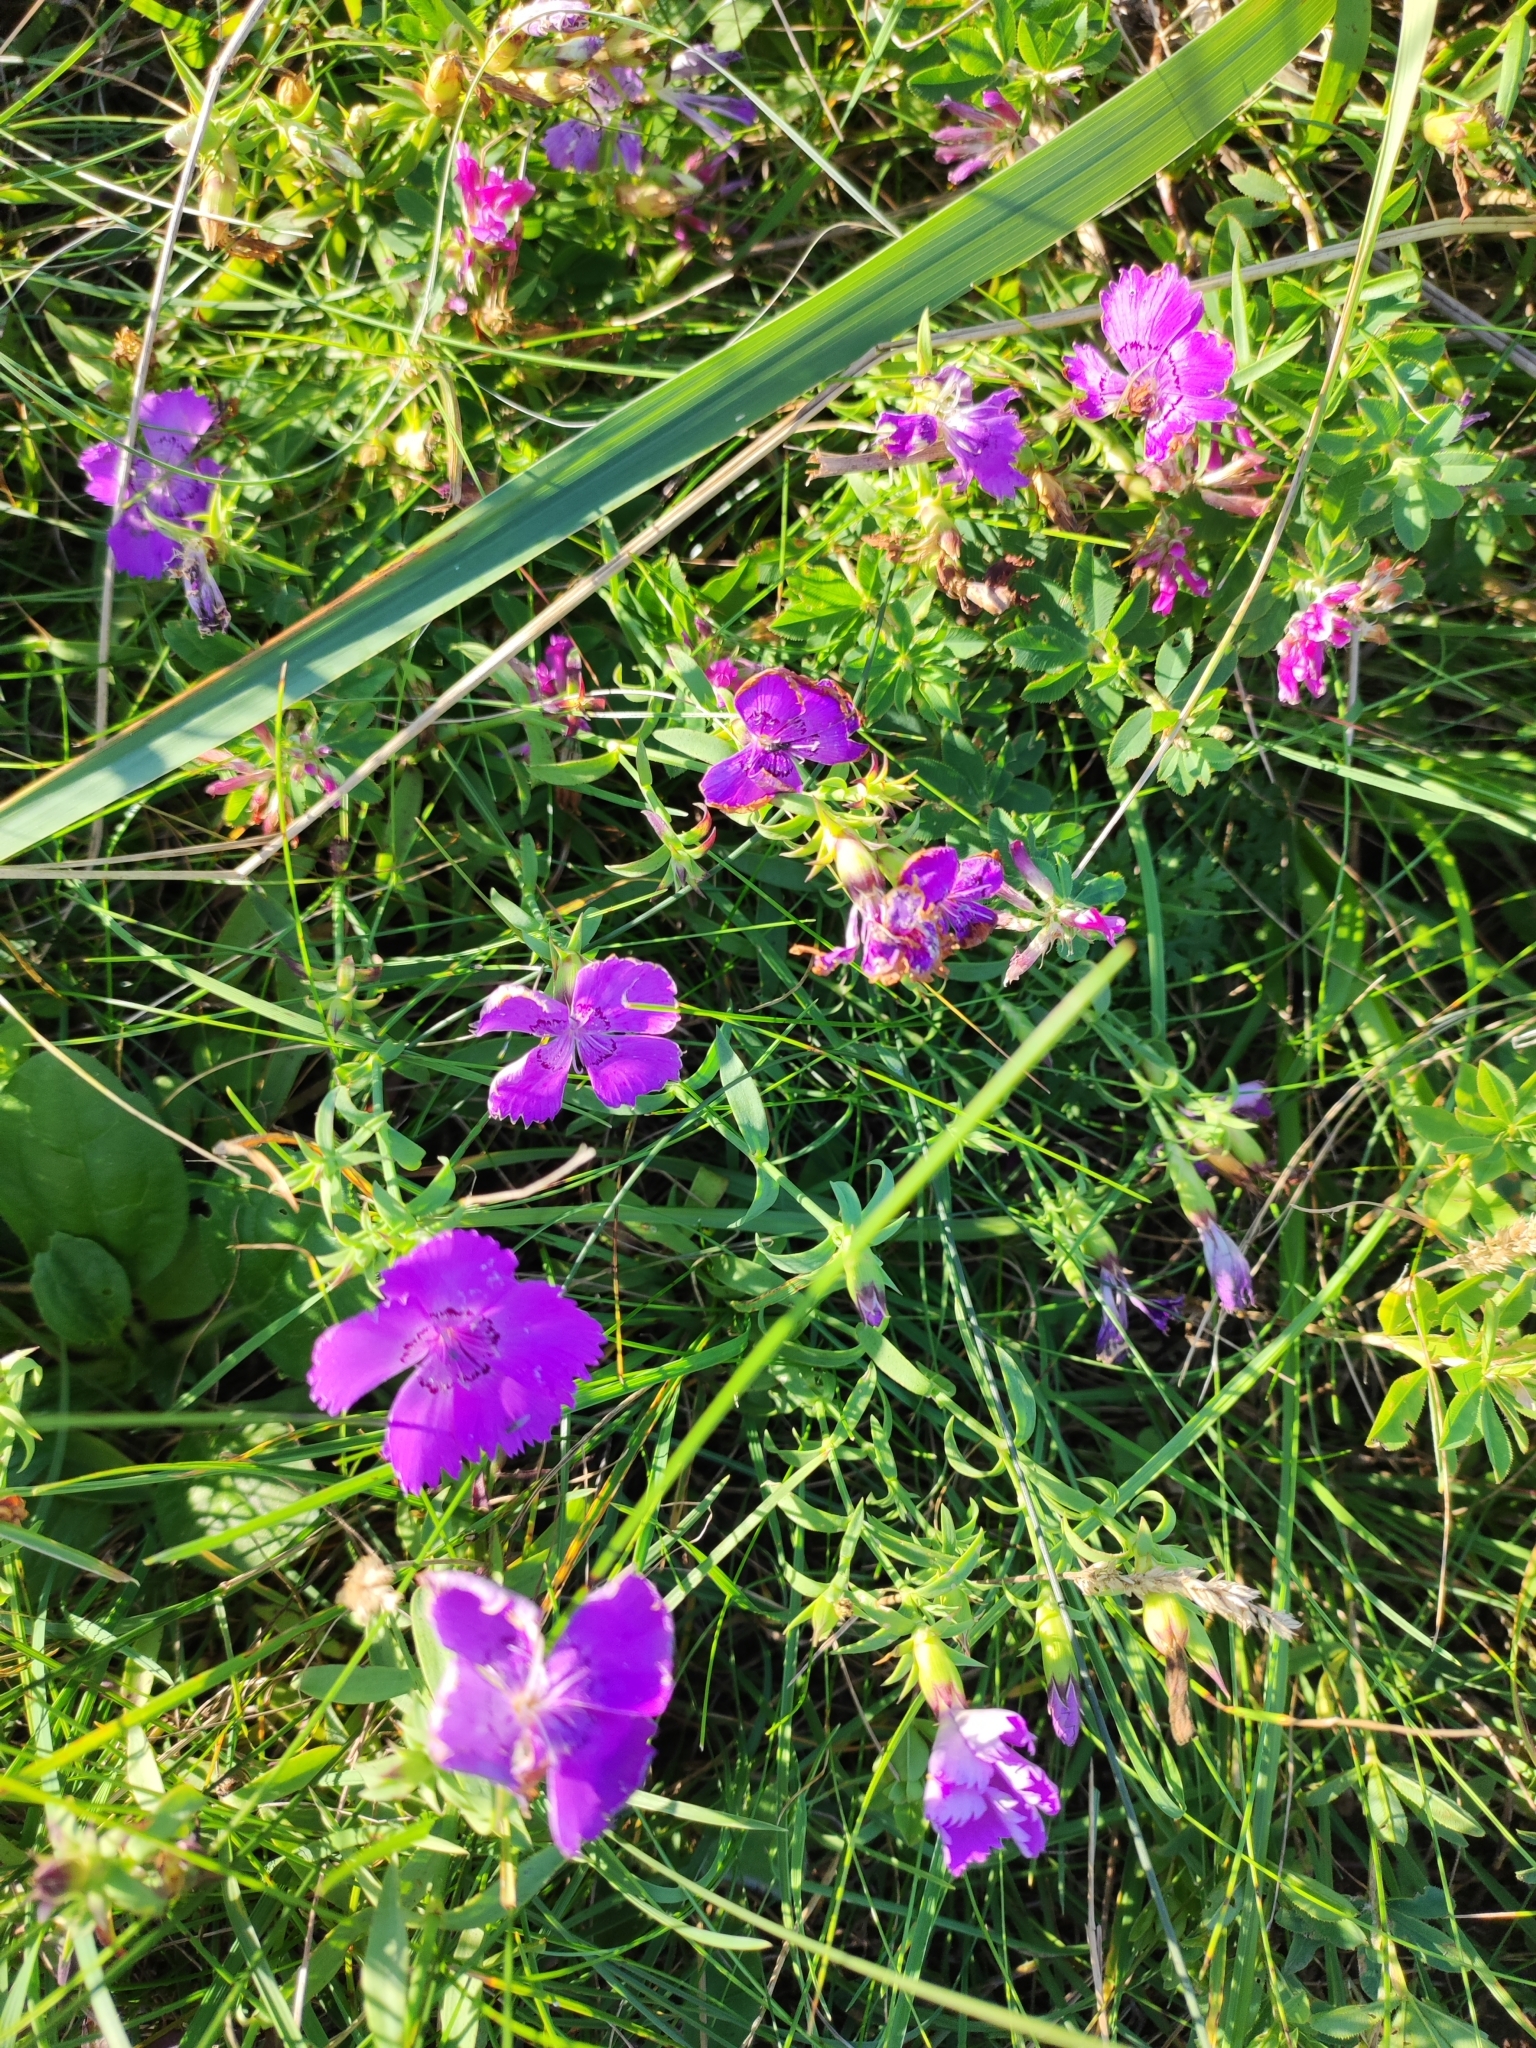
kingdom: Plantae
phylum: Tracheophyta
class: Magnoliopsida
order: Caryophyllales
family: Caryophyllaceae
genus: Dianthus
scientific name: Dianthus chinensis
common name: Rainbow pink
